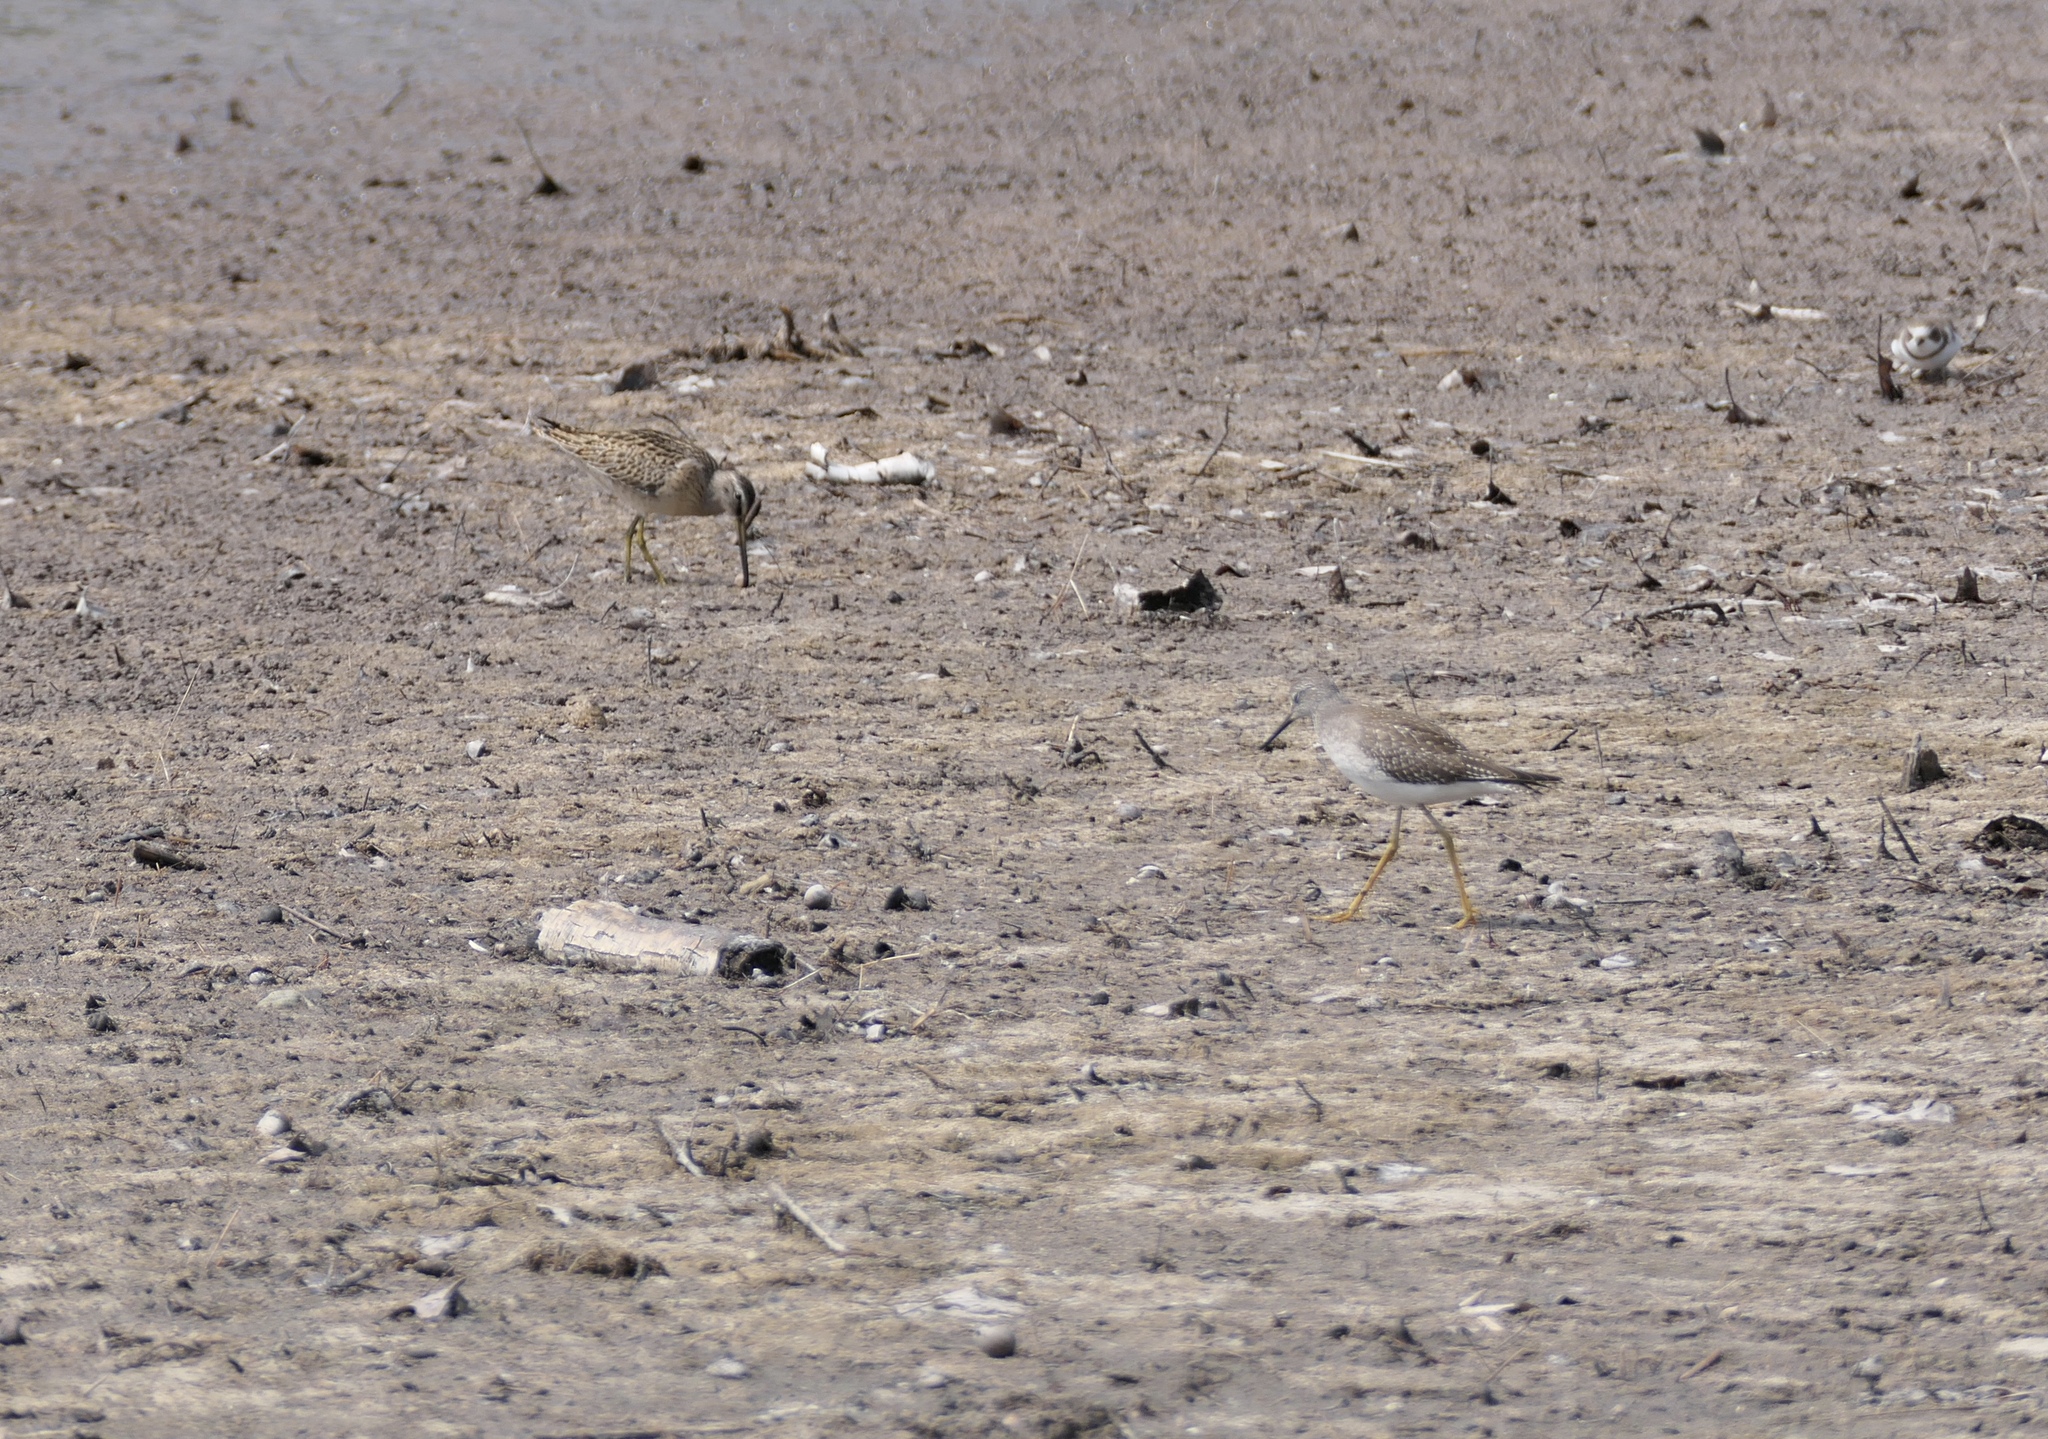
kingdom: Animalia
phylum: Chordata
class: Aves
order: Charadriiformes
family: Scolopacidae
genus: Limnodromus
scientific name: Limnodromus griseus
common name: Short-billed dowitcher
